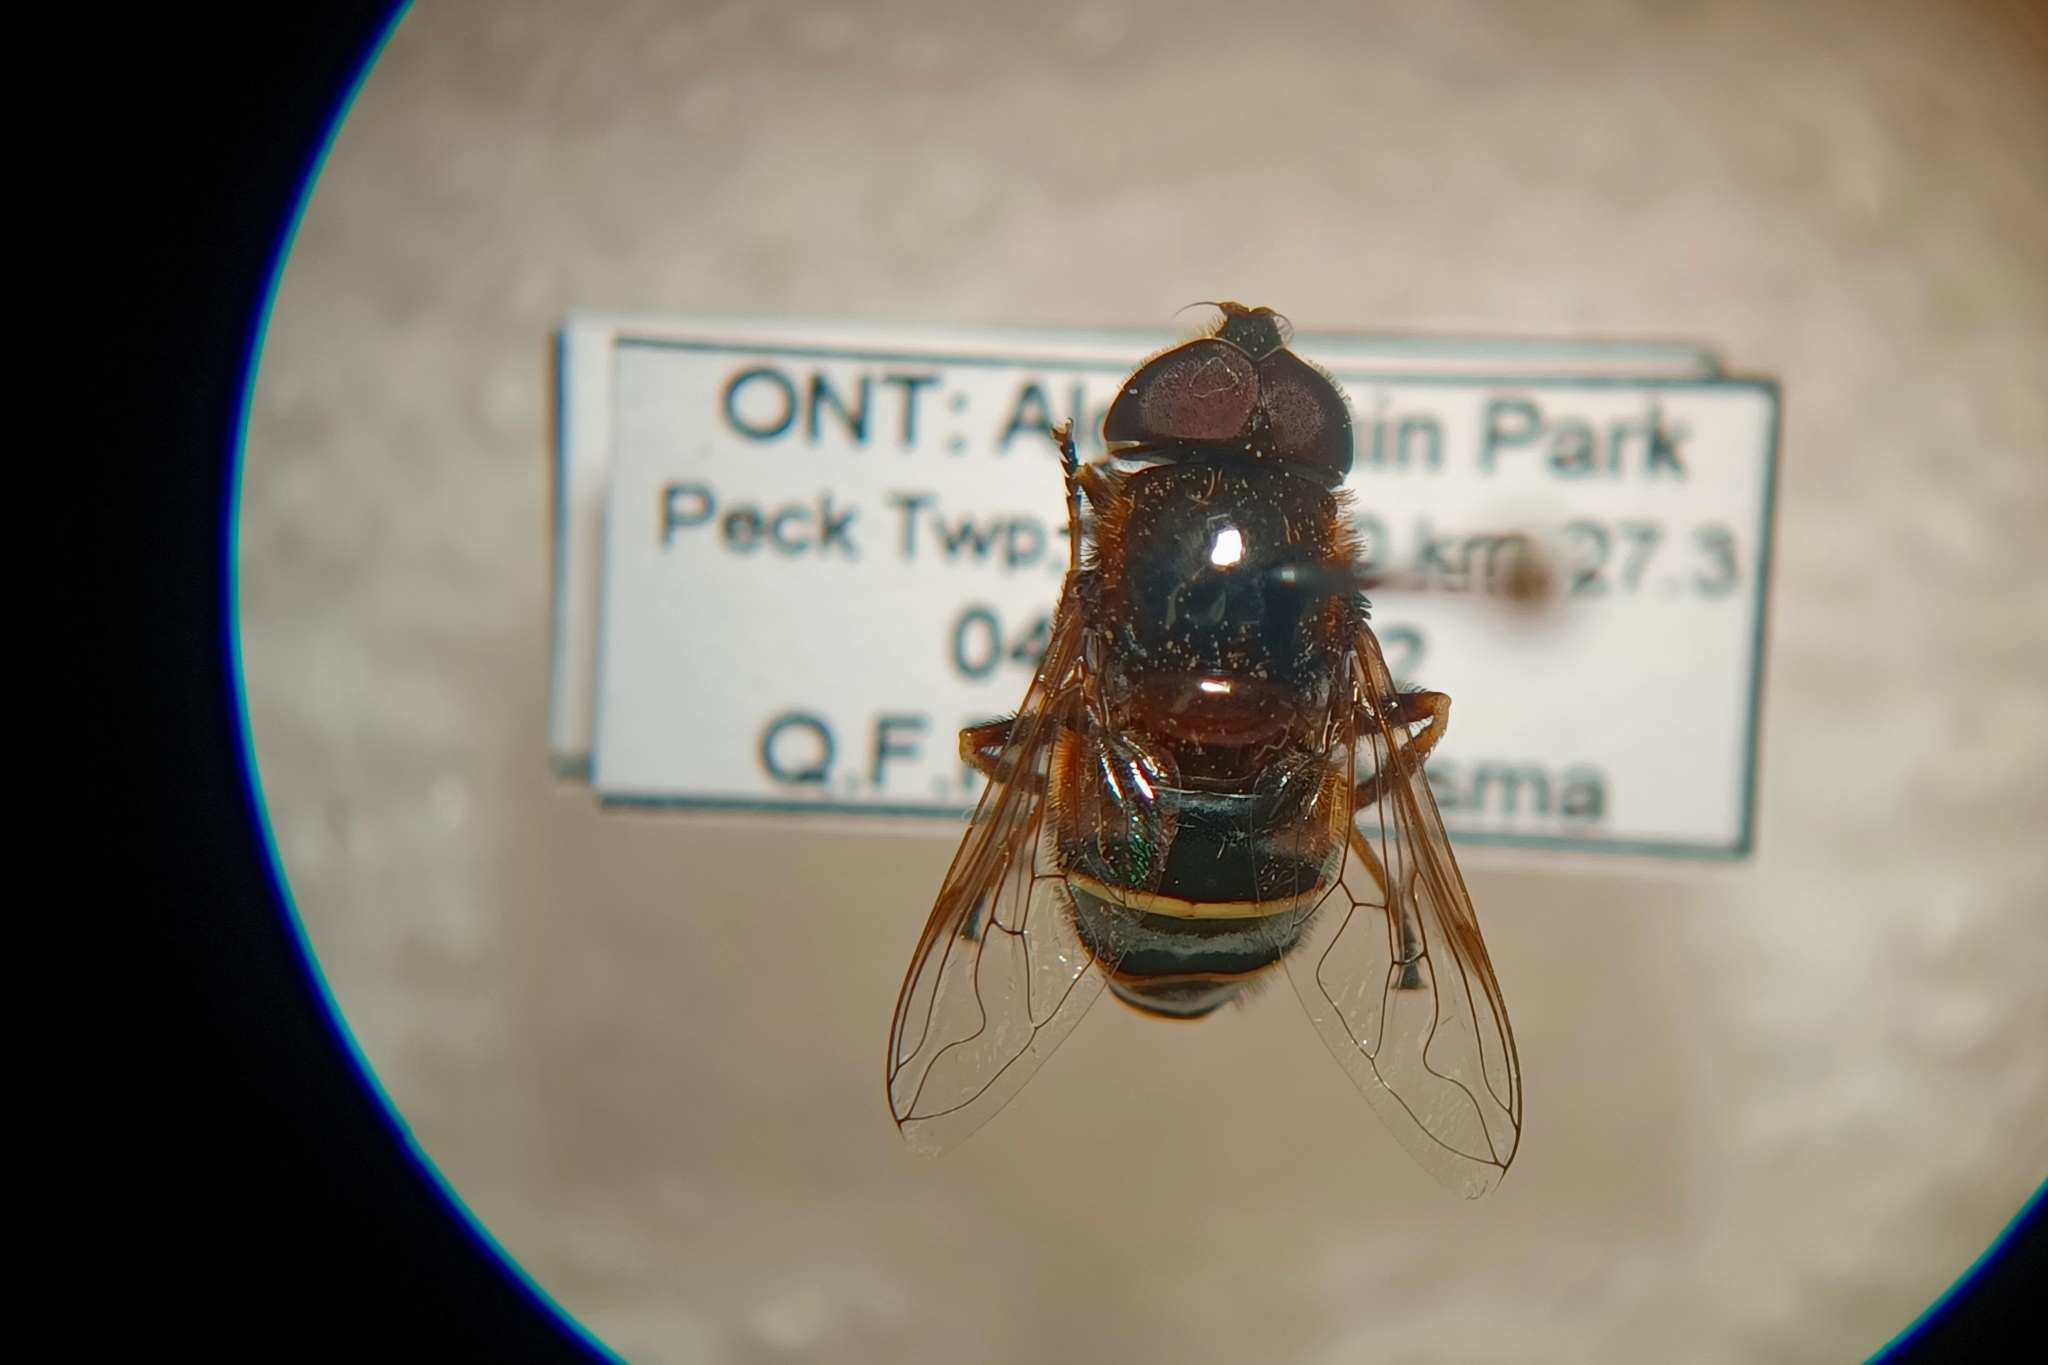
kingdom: Animalia
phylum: Arthropoda
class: Insecta
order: Diptera
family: Syrphidae
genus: Eristalis
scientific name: Eristalis cryptarum
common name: Bog hoverfly
